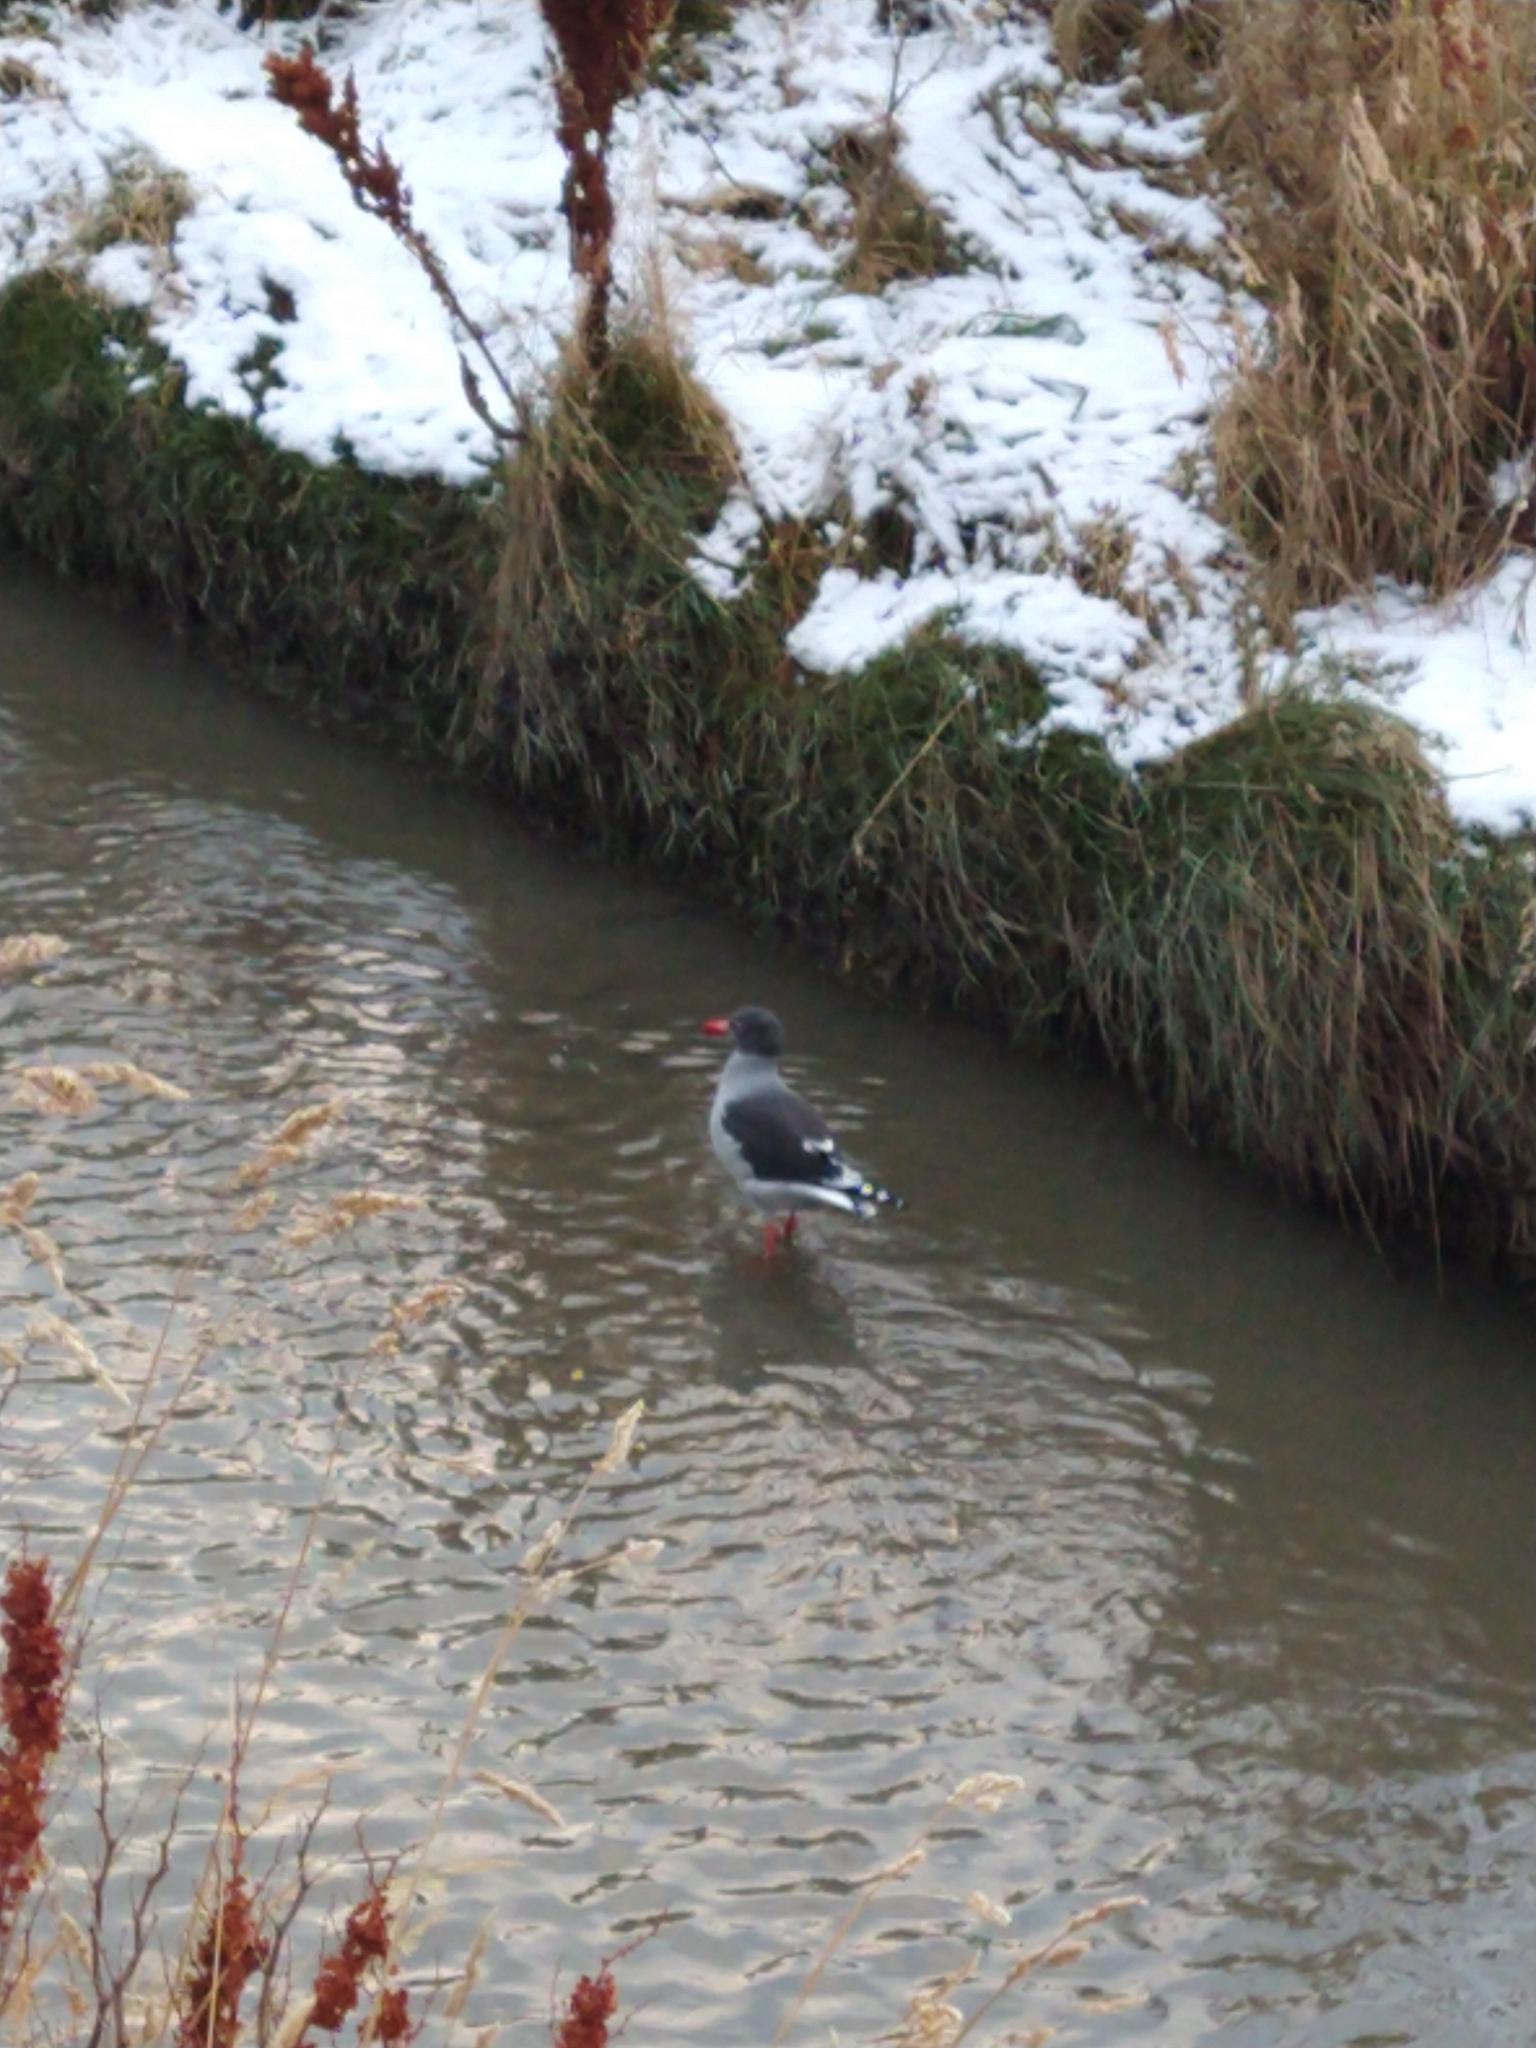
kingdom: Animalia
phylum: Chordata
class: Aves
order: Charadriiformes
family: Laridae
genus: Leucophaeus
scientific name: Leucophaeus scoresbii
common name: Dolphin gull
